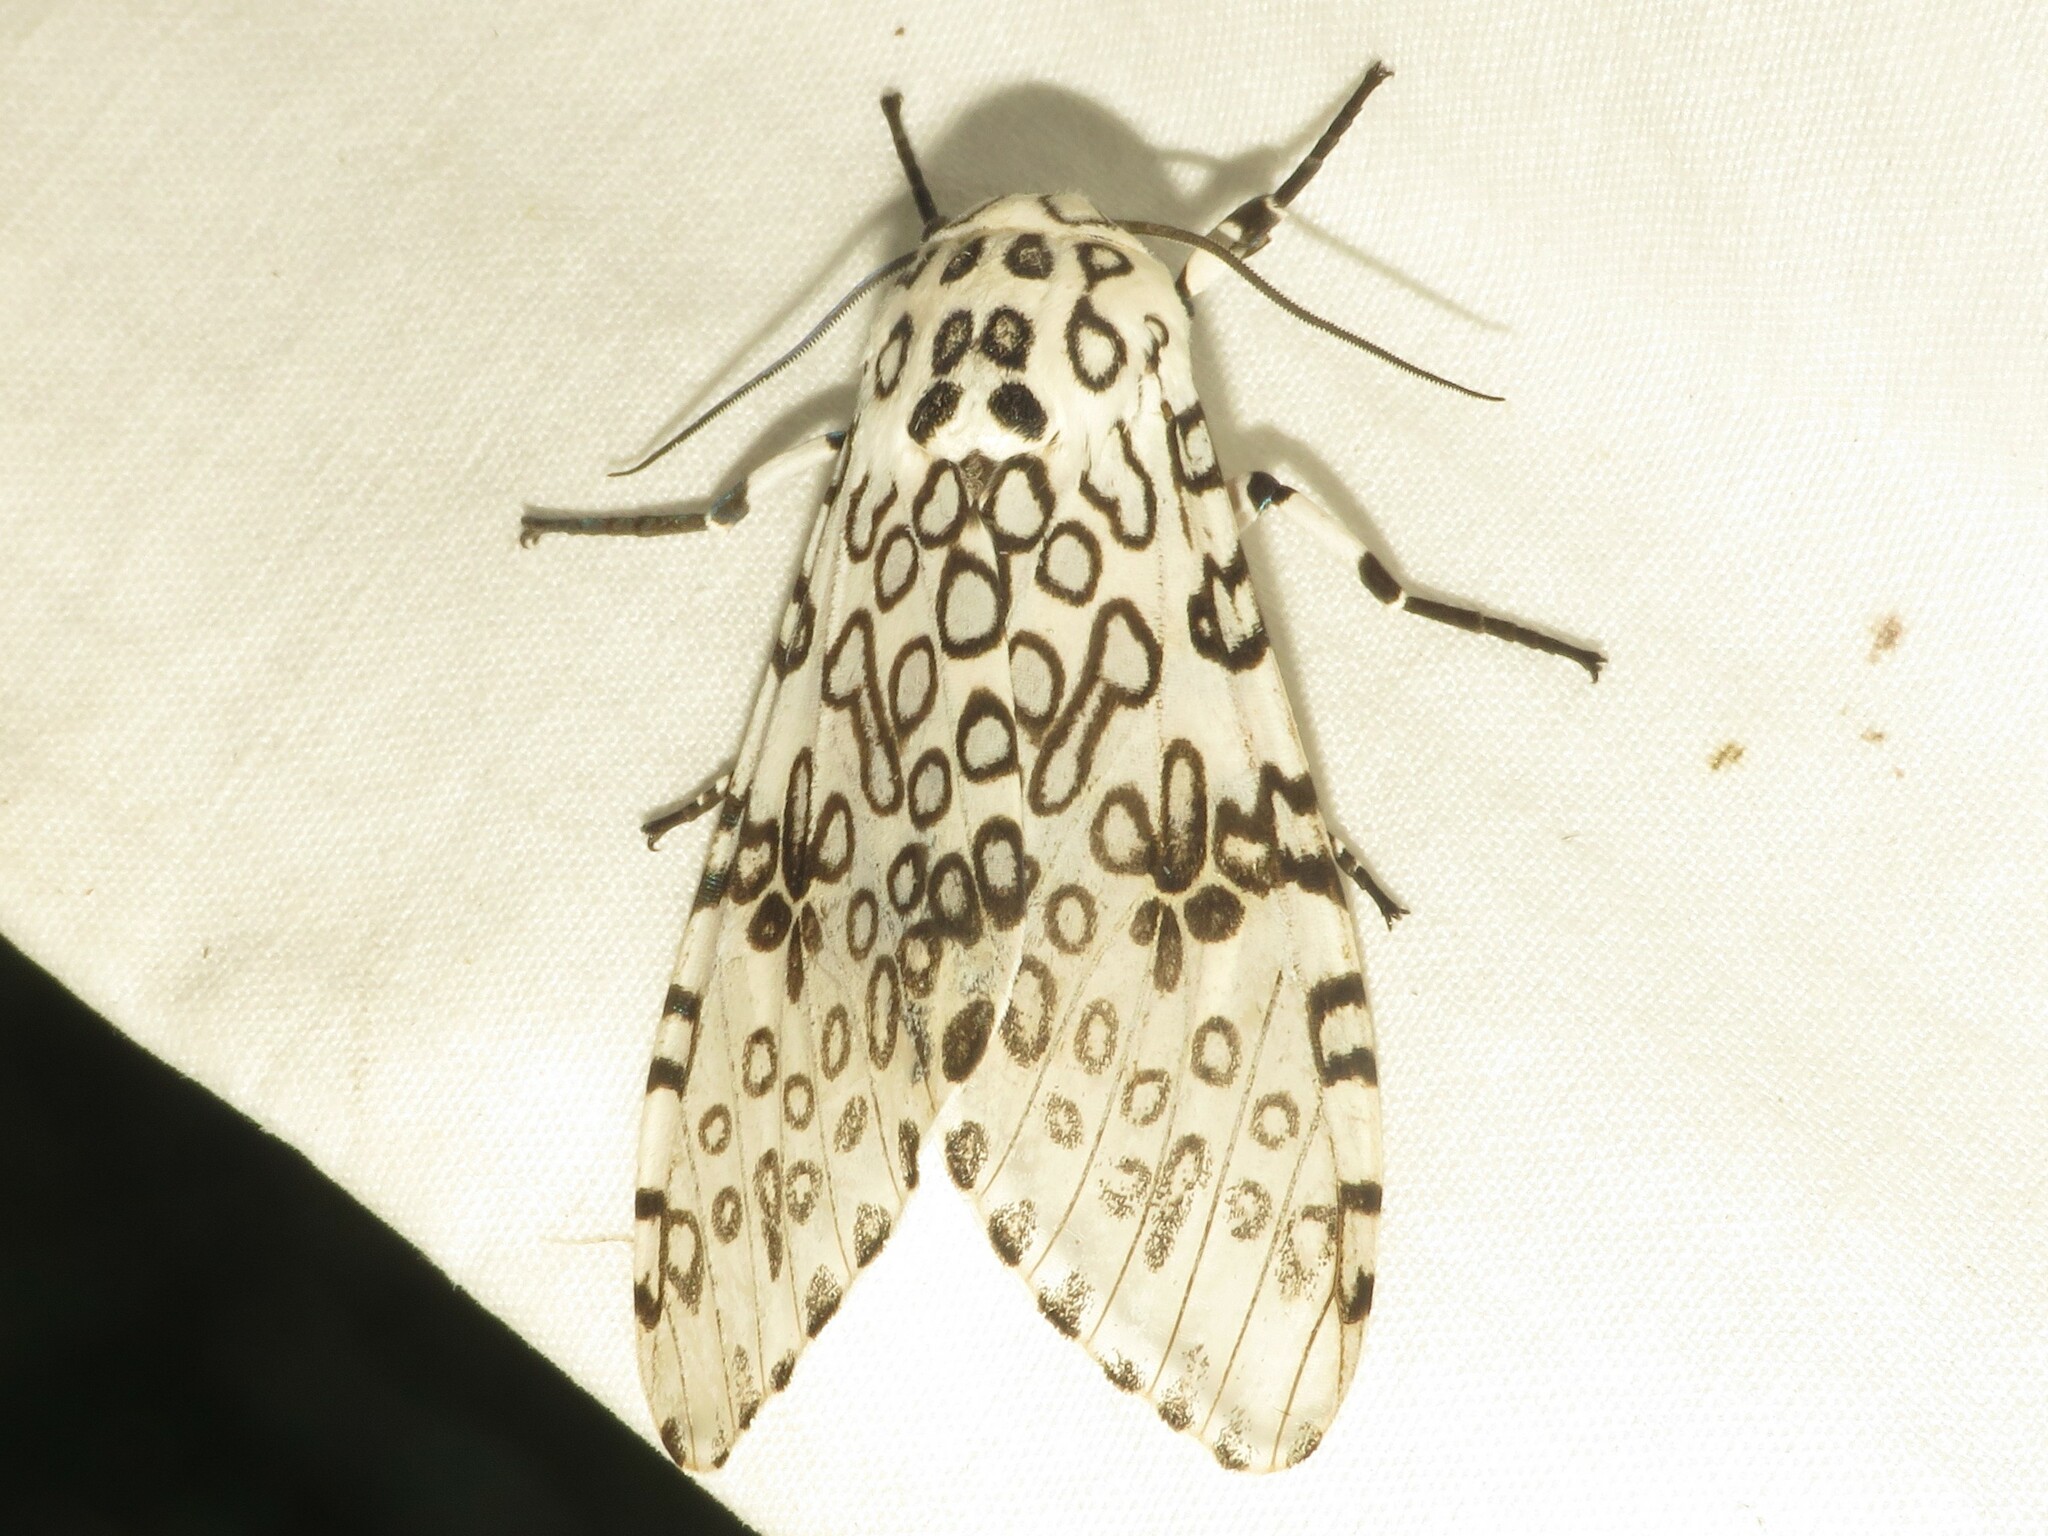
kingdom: Animalia
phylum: Arthropoda
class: Insecta
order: Lepidoptera
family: Erebidae
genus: Hypercompe
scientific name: Hypercompe scribonia
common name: Giant leopard moth
